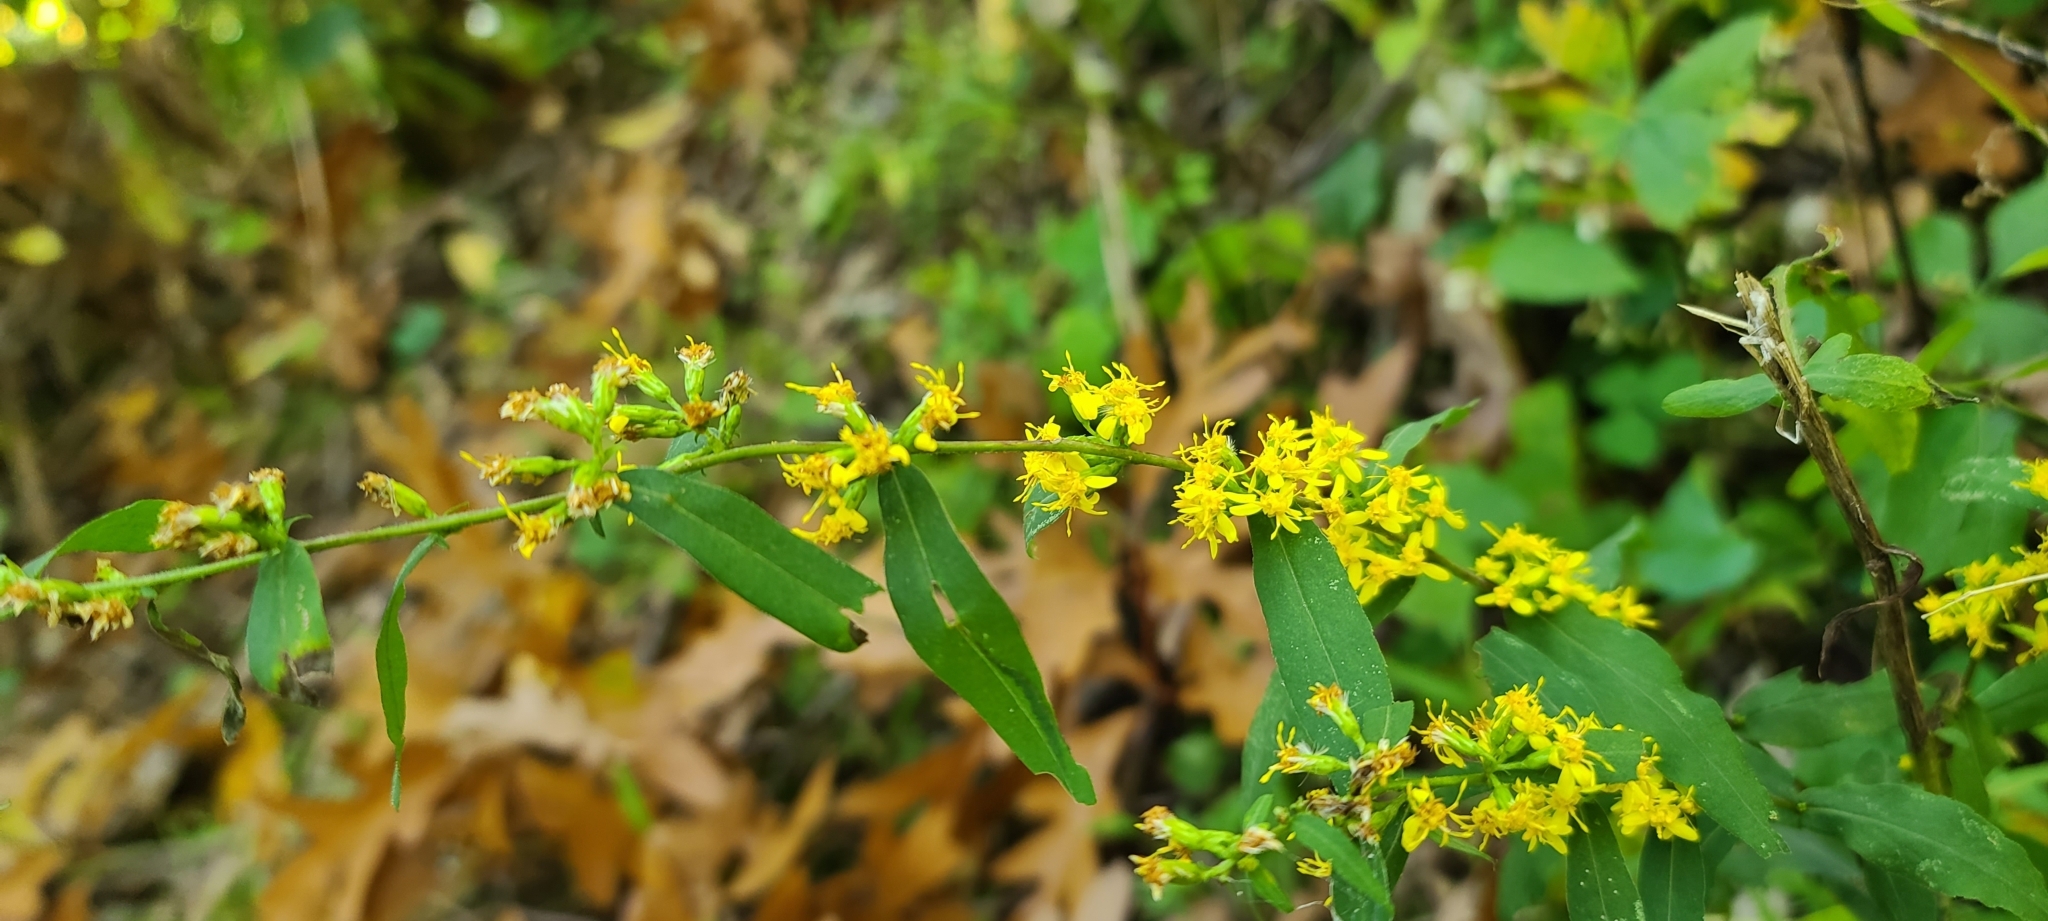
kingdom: Plantae
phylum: Tracheophyta
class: Magnoliopsida
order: Asterales
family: Asteraceae
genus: Solidago
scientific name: Solidago caesia
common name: Woodland goldenrod
